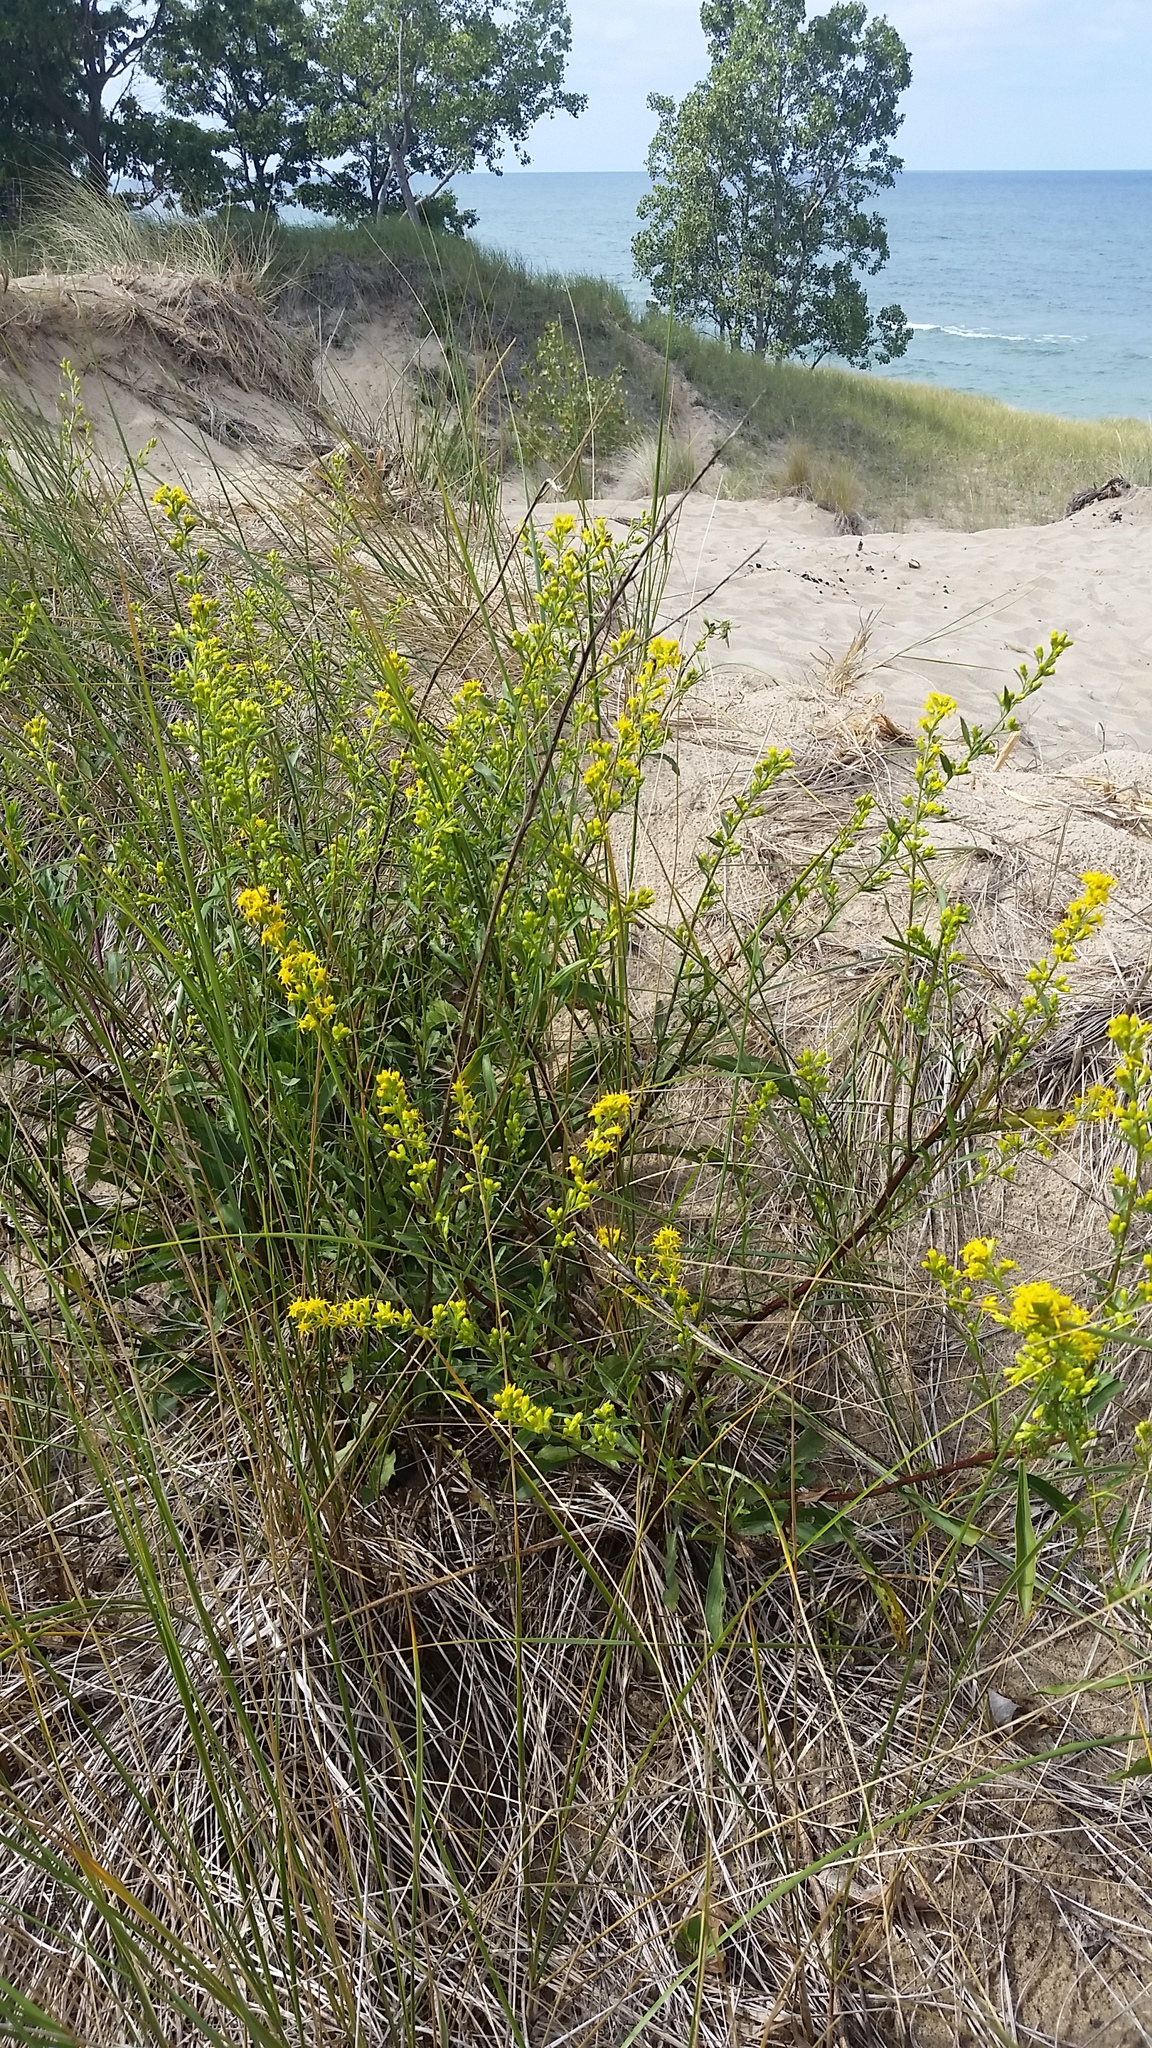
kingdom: Plantae
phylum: Tracheophyta
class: Magnoliopsida
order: Asterales
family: Asteraceae
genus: Solidago
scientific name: Solidago gillmanii
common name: Gillman's goldenrod
